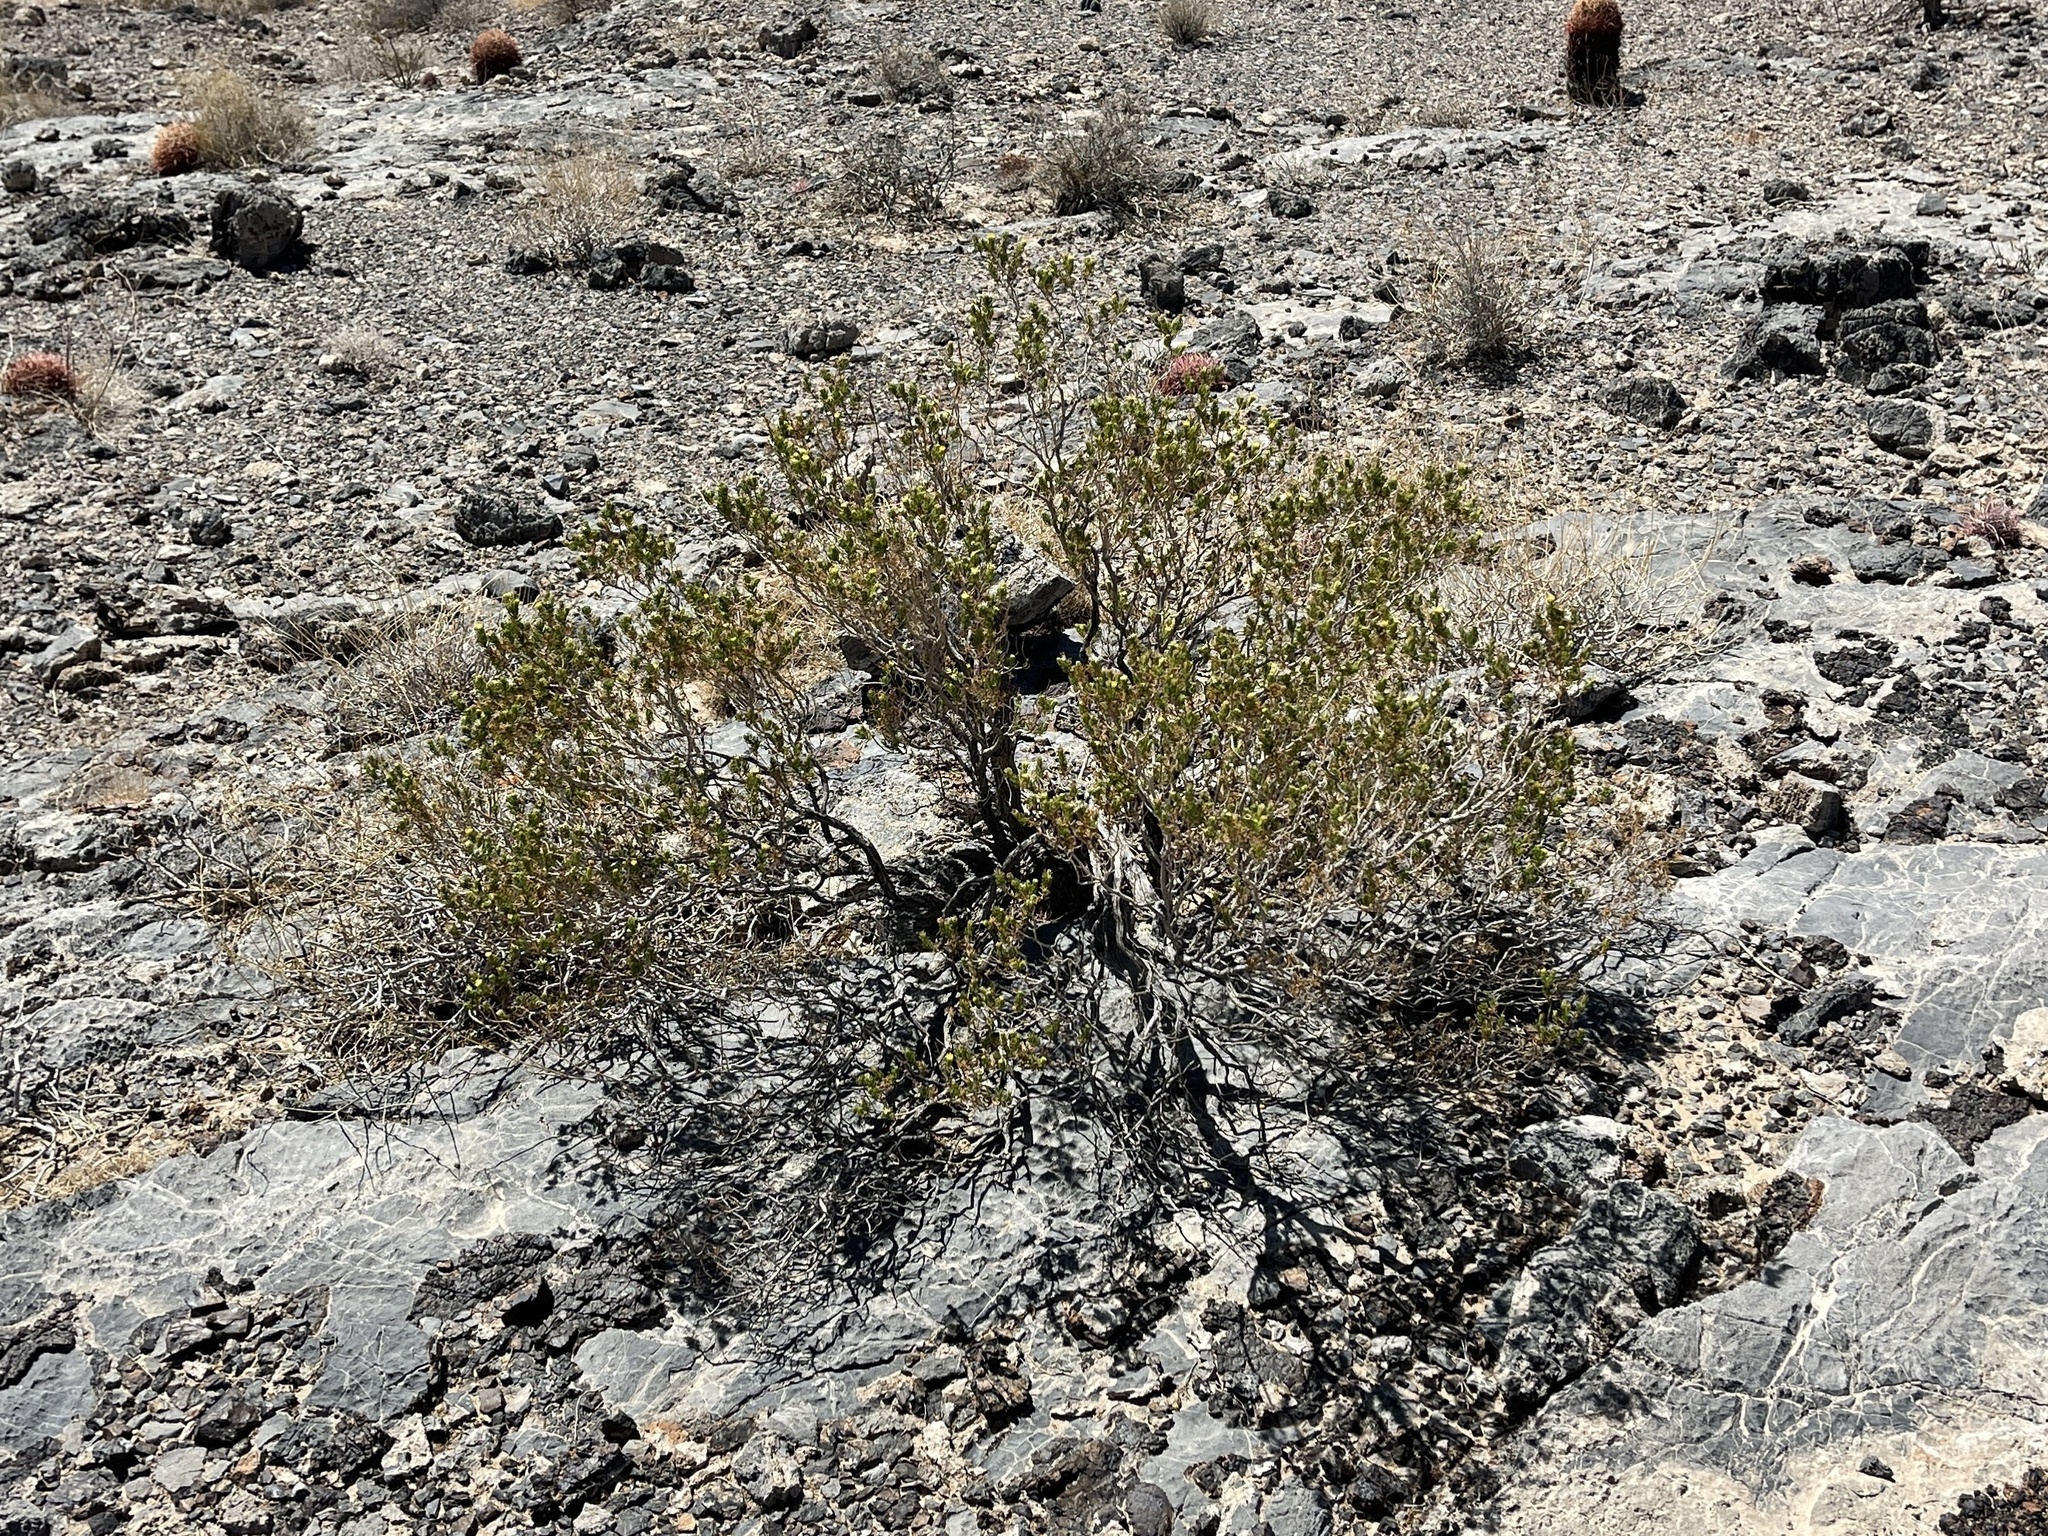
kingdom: Plantae
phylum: Tracheophyta
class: Magnoliopsida
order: Asterales
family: Asteraceae
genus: Peucephyllum
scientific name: Peucephyllum schottii
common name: Pygmy-cedar
